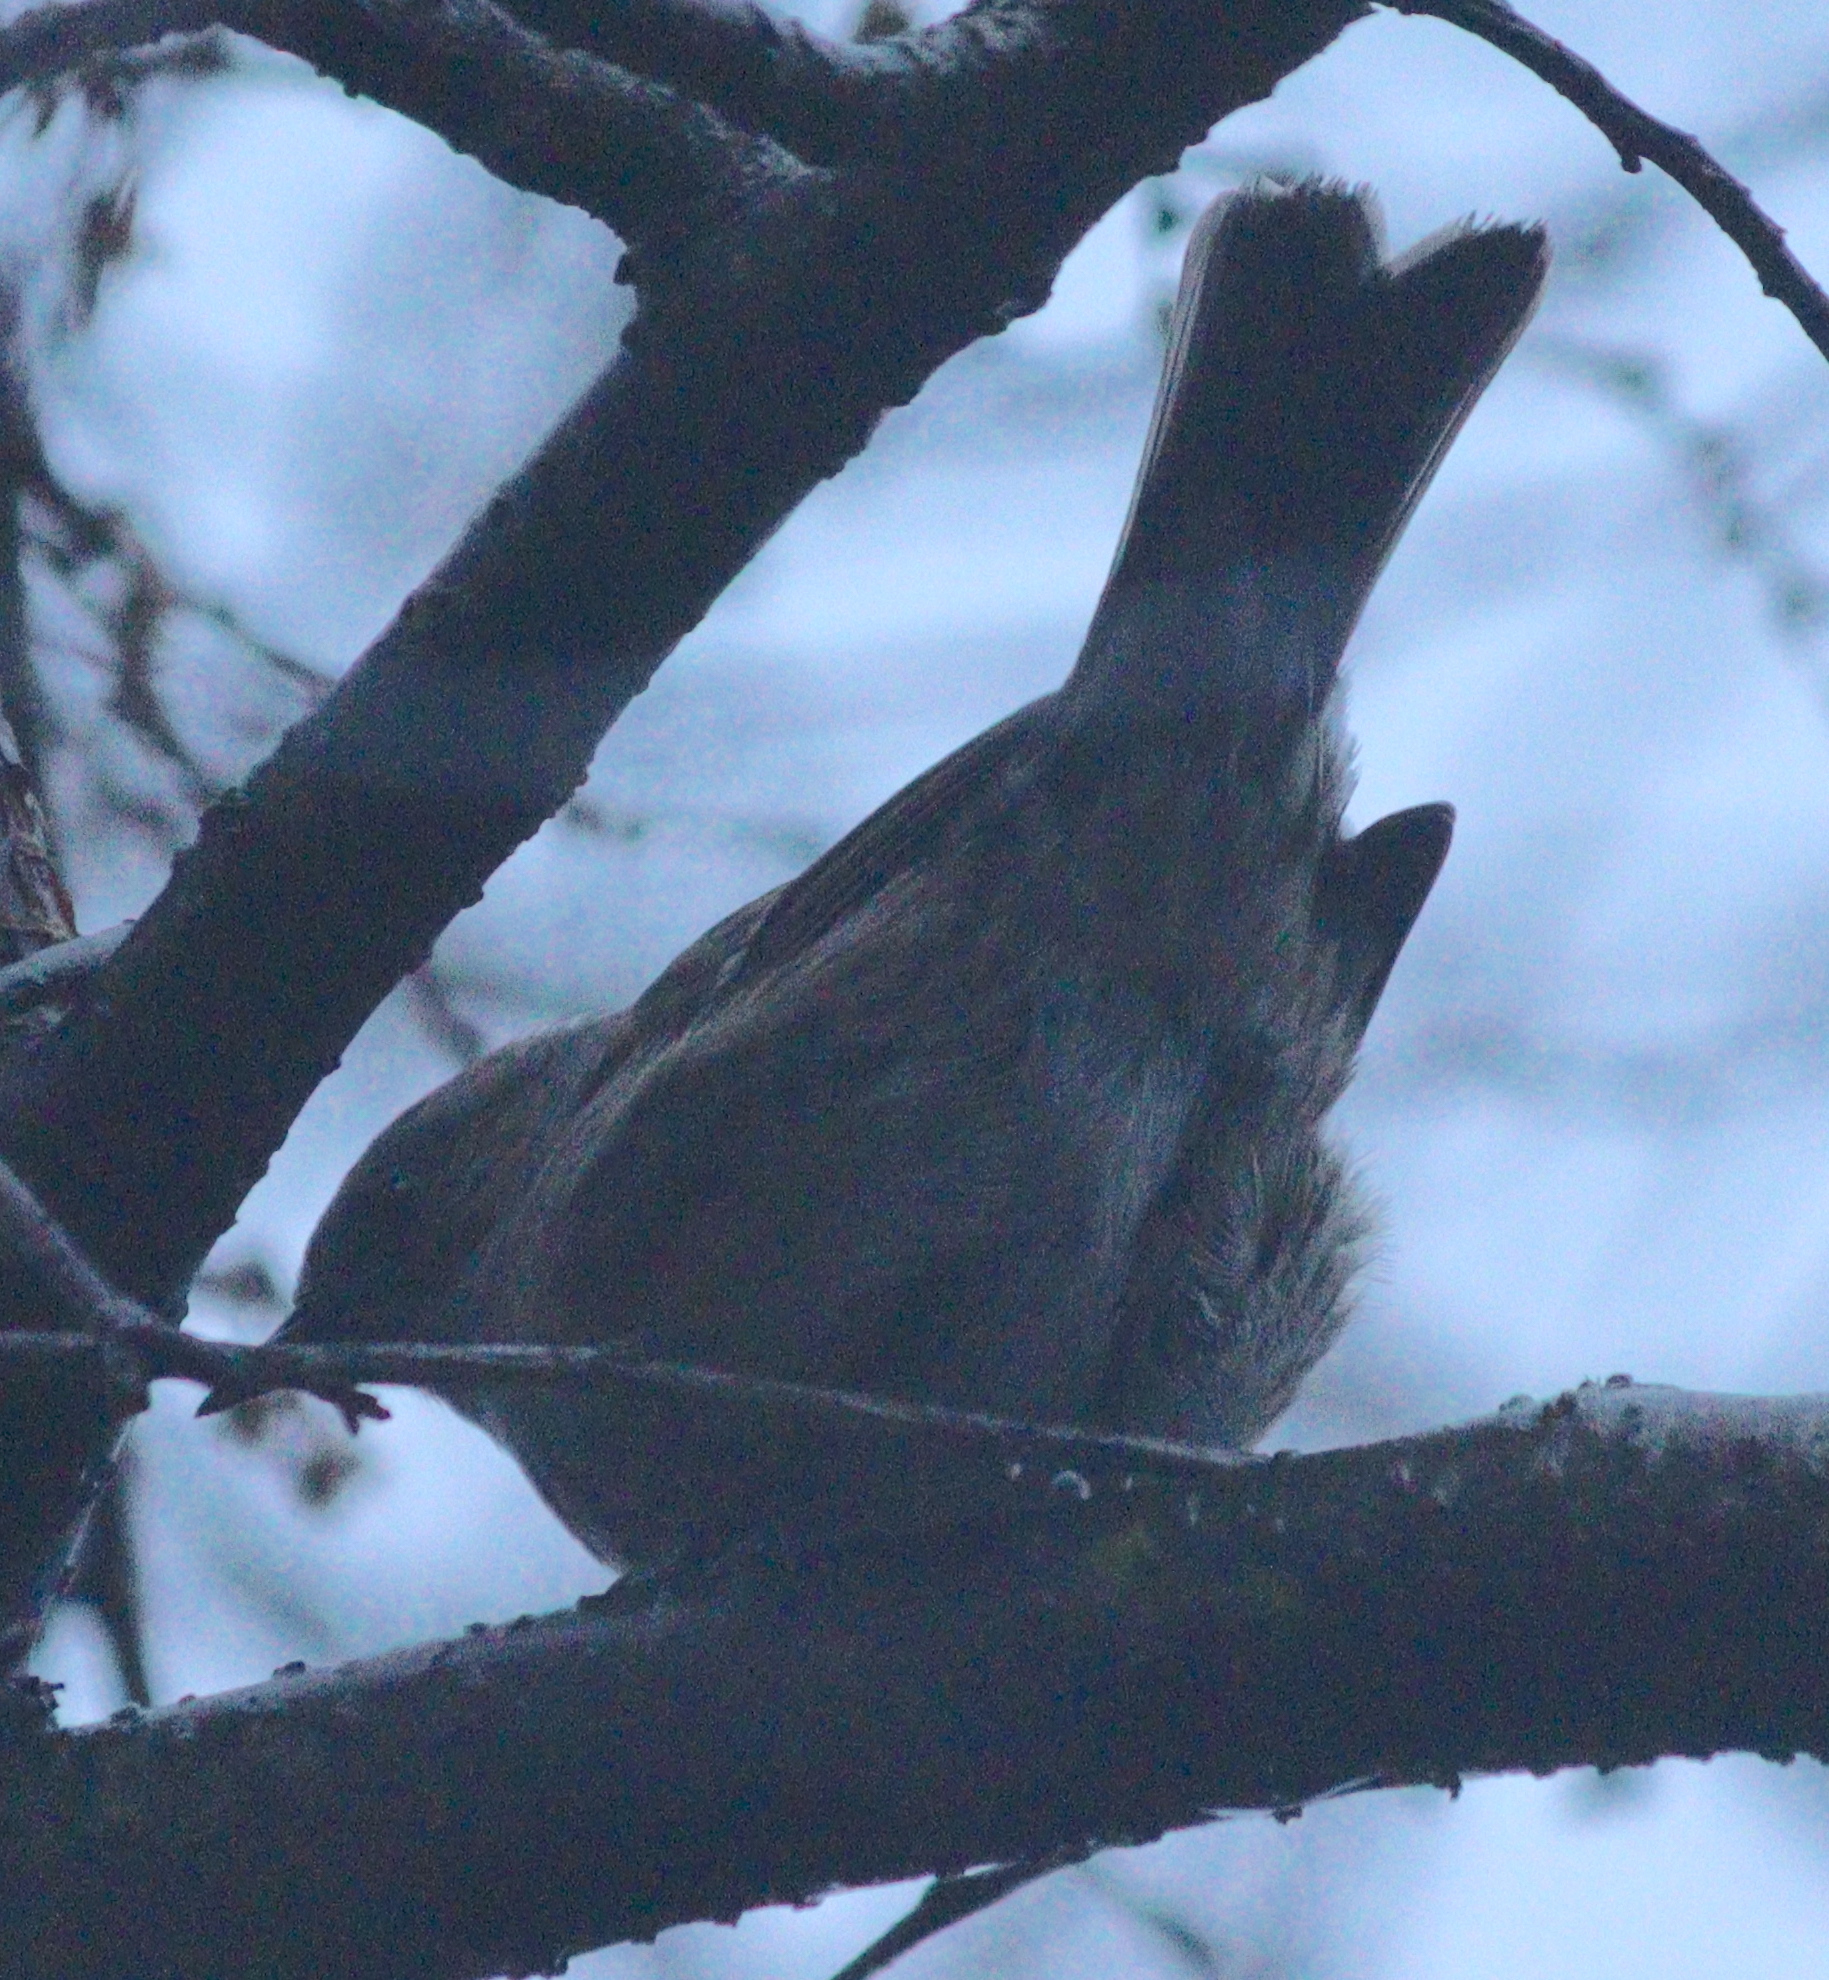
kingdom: Animalia
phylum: Chordata
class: Aves
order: Passeriformes
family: Prunellidae
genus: Prunella
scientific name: Prunella modularis
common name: Dunnock
